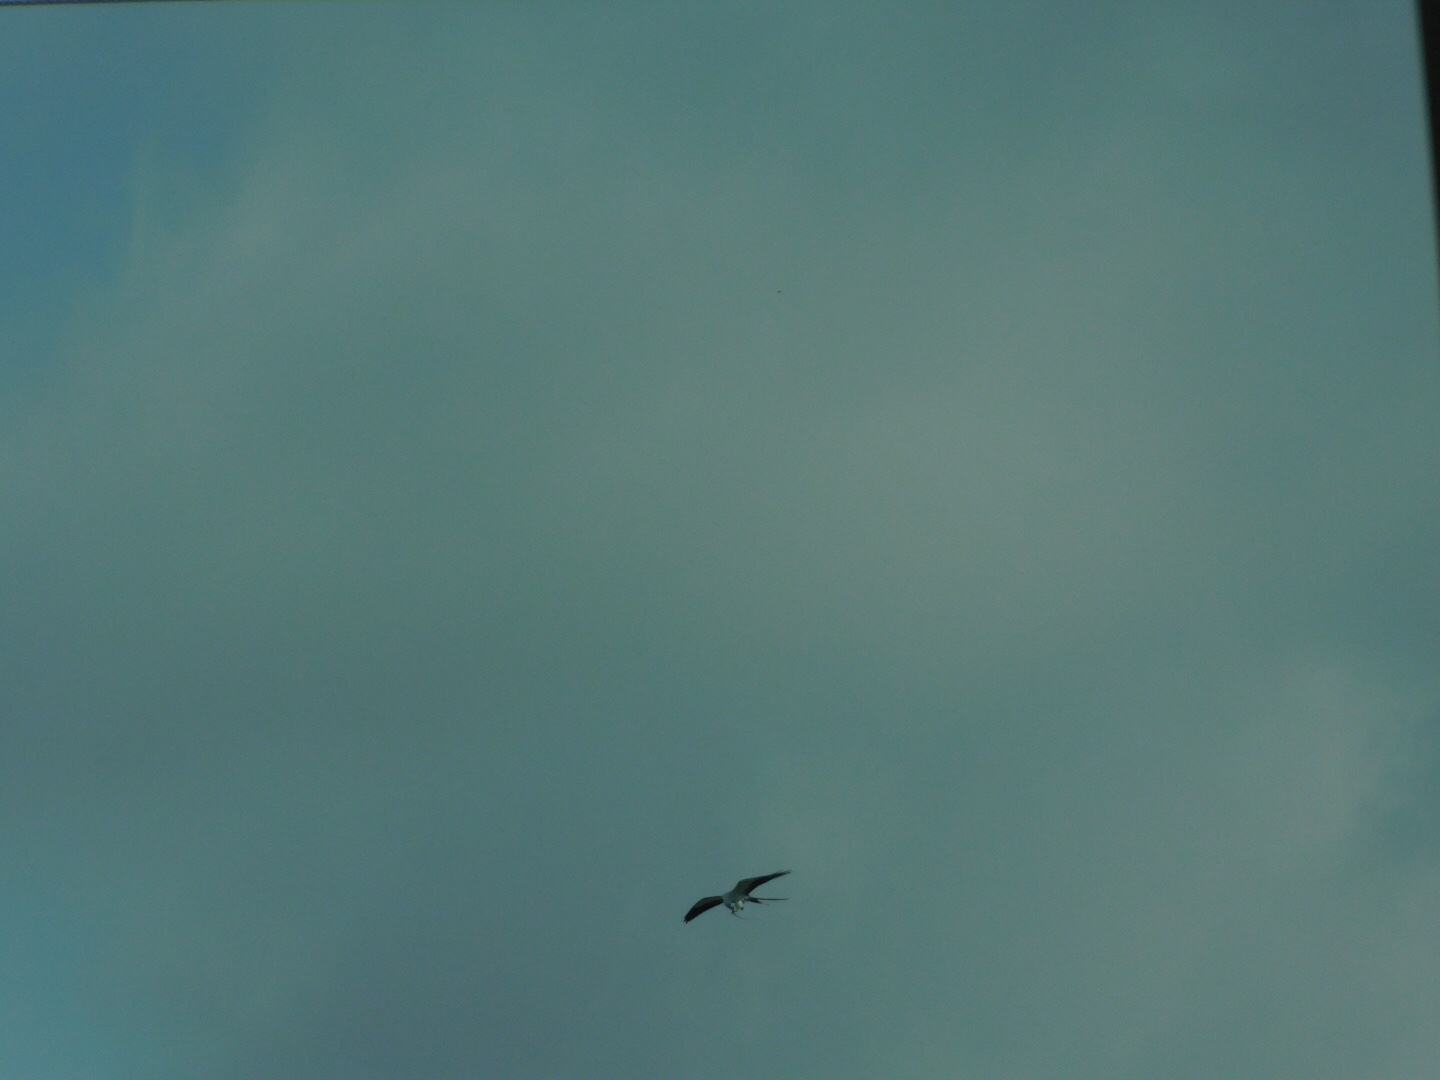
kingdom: Animalia
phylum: Chordata
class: Aves
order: Accipitriformes
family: Accipitridae
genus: Elanoides
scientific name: Elanoides forficatus
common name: Swallow-tailed kite
